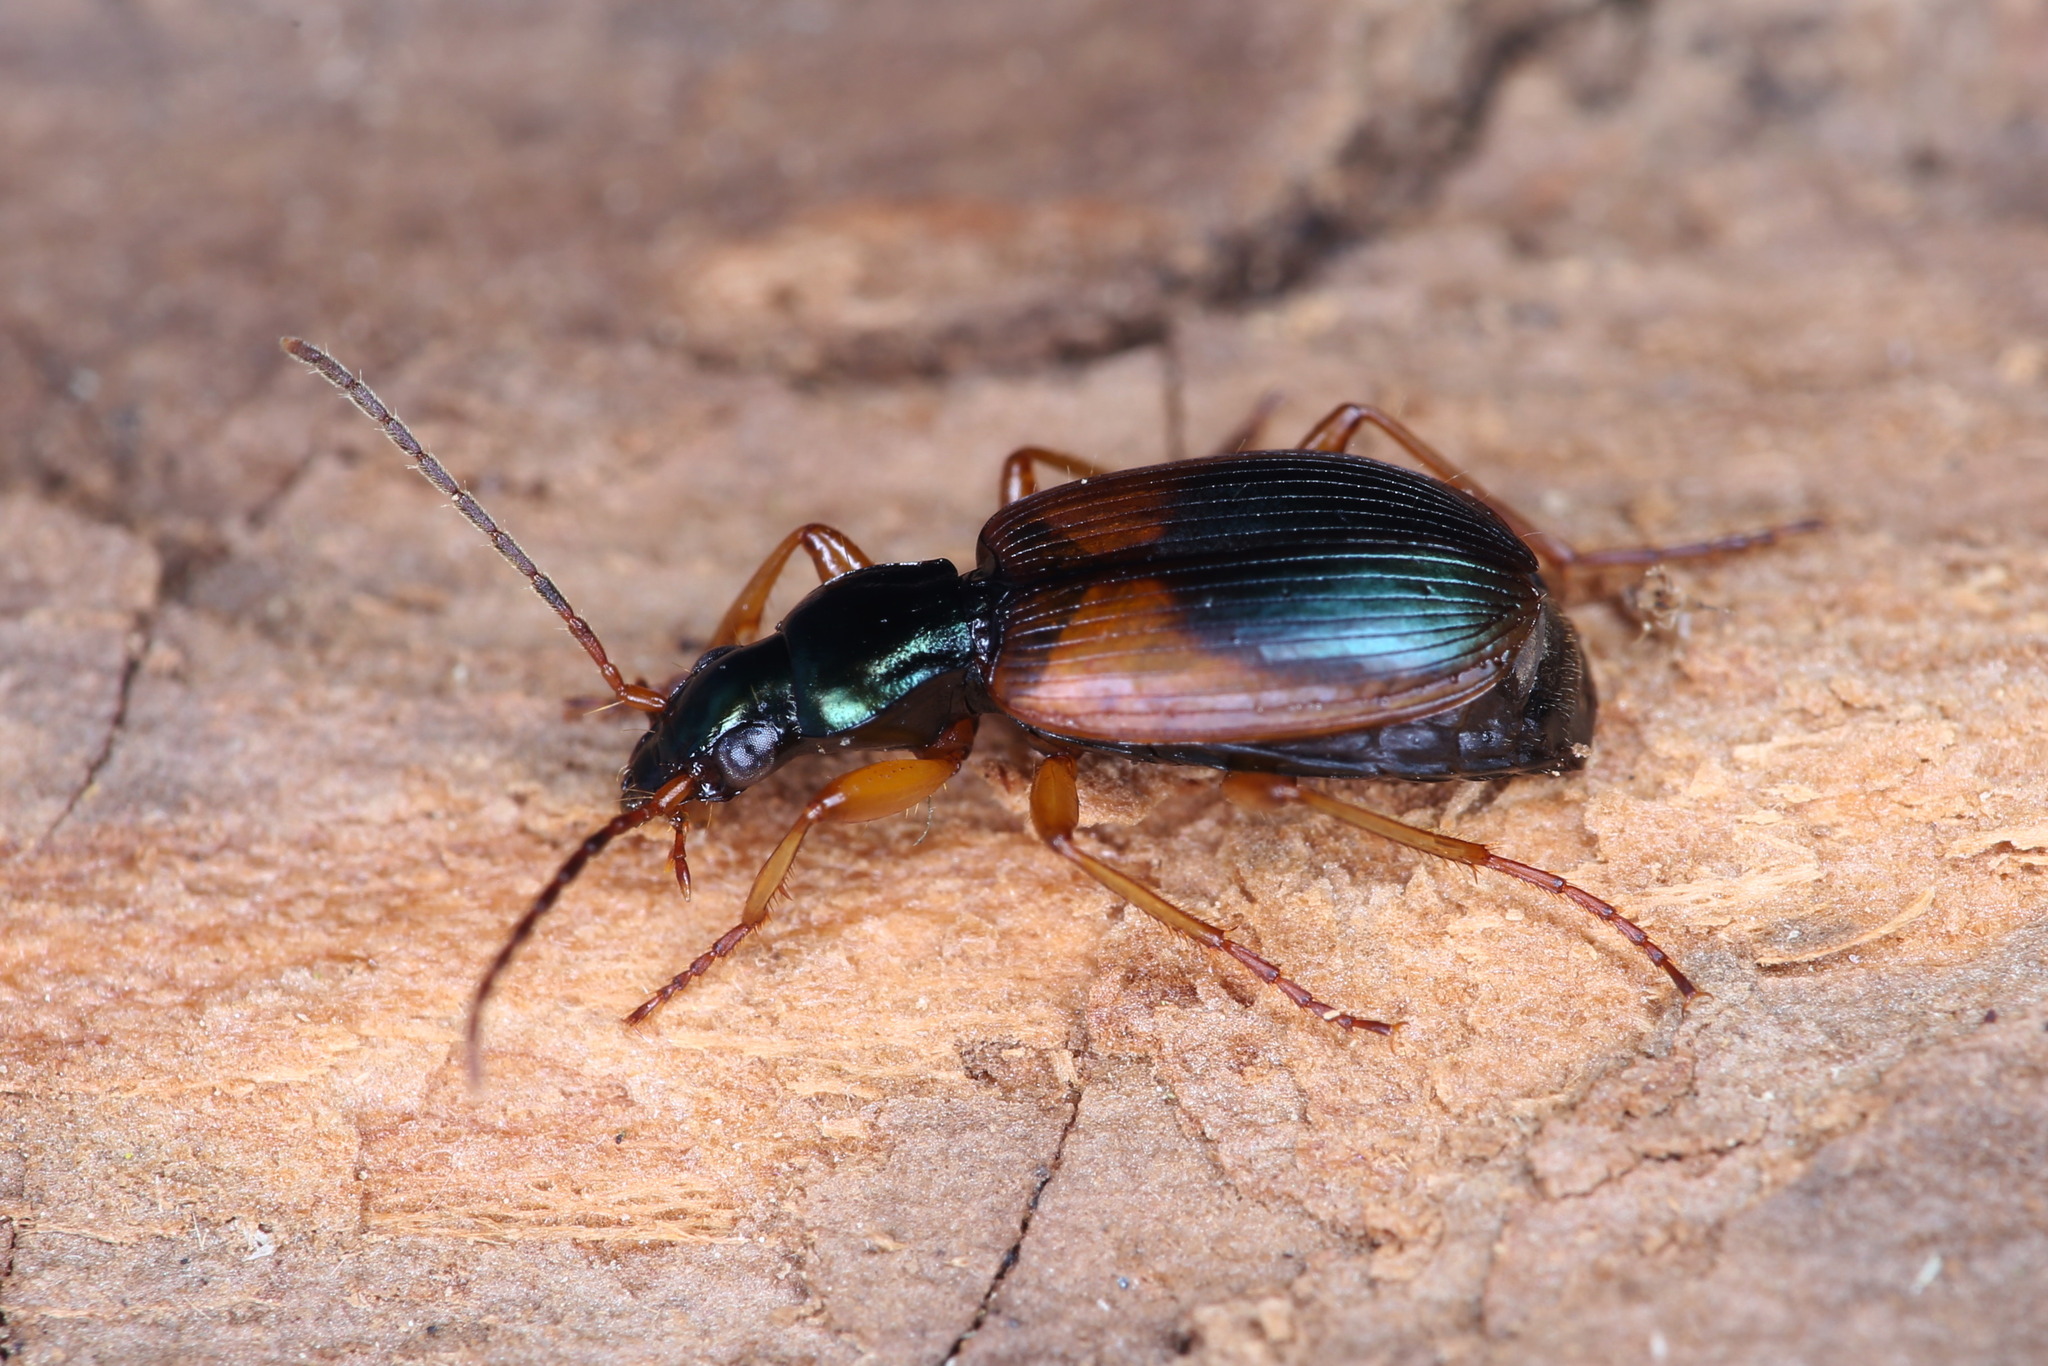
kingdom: Animalia
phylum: Arthropoda
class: Insecta
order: Coleoptera
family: Carabidae
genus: Anchomenus
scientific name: Anchomenus dorsalis
